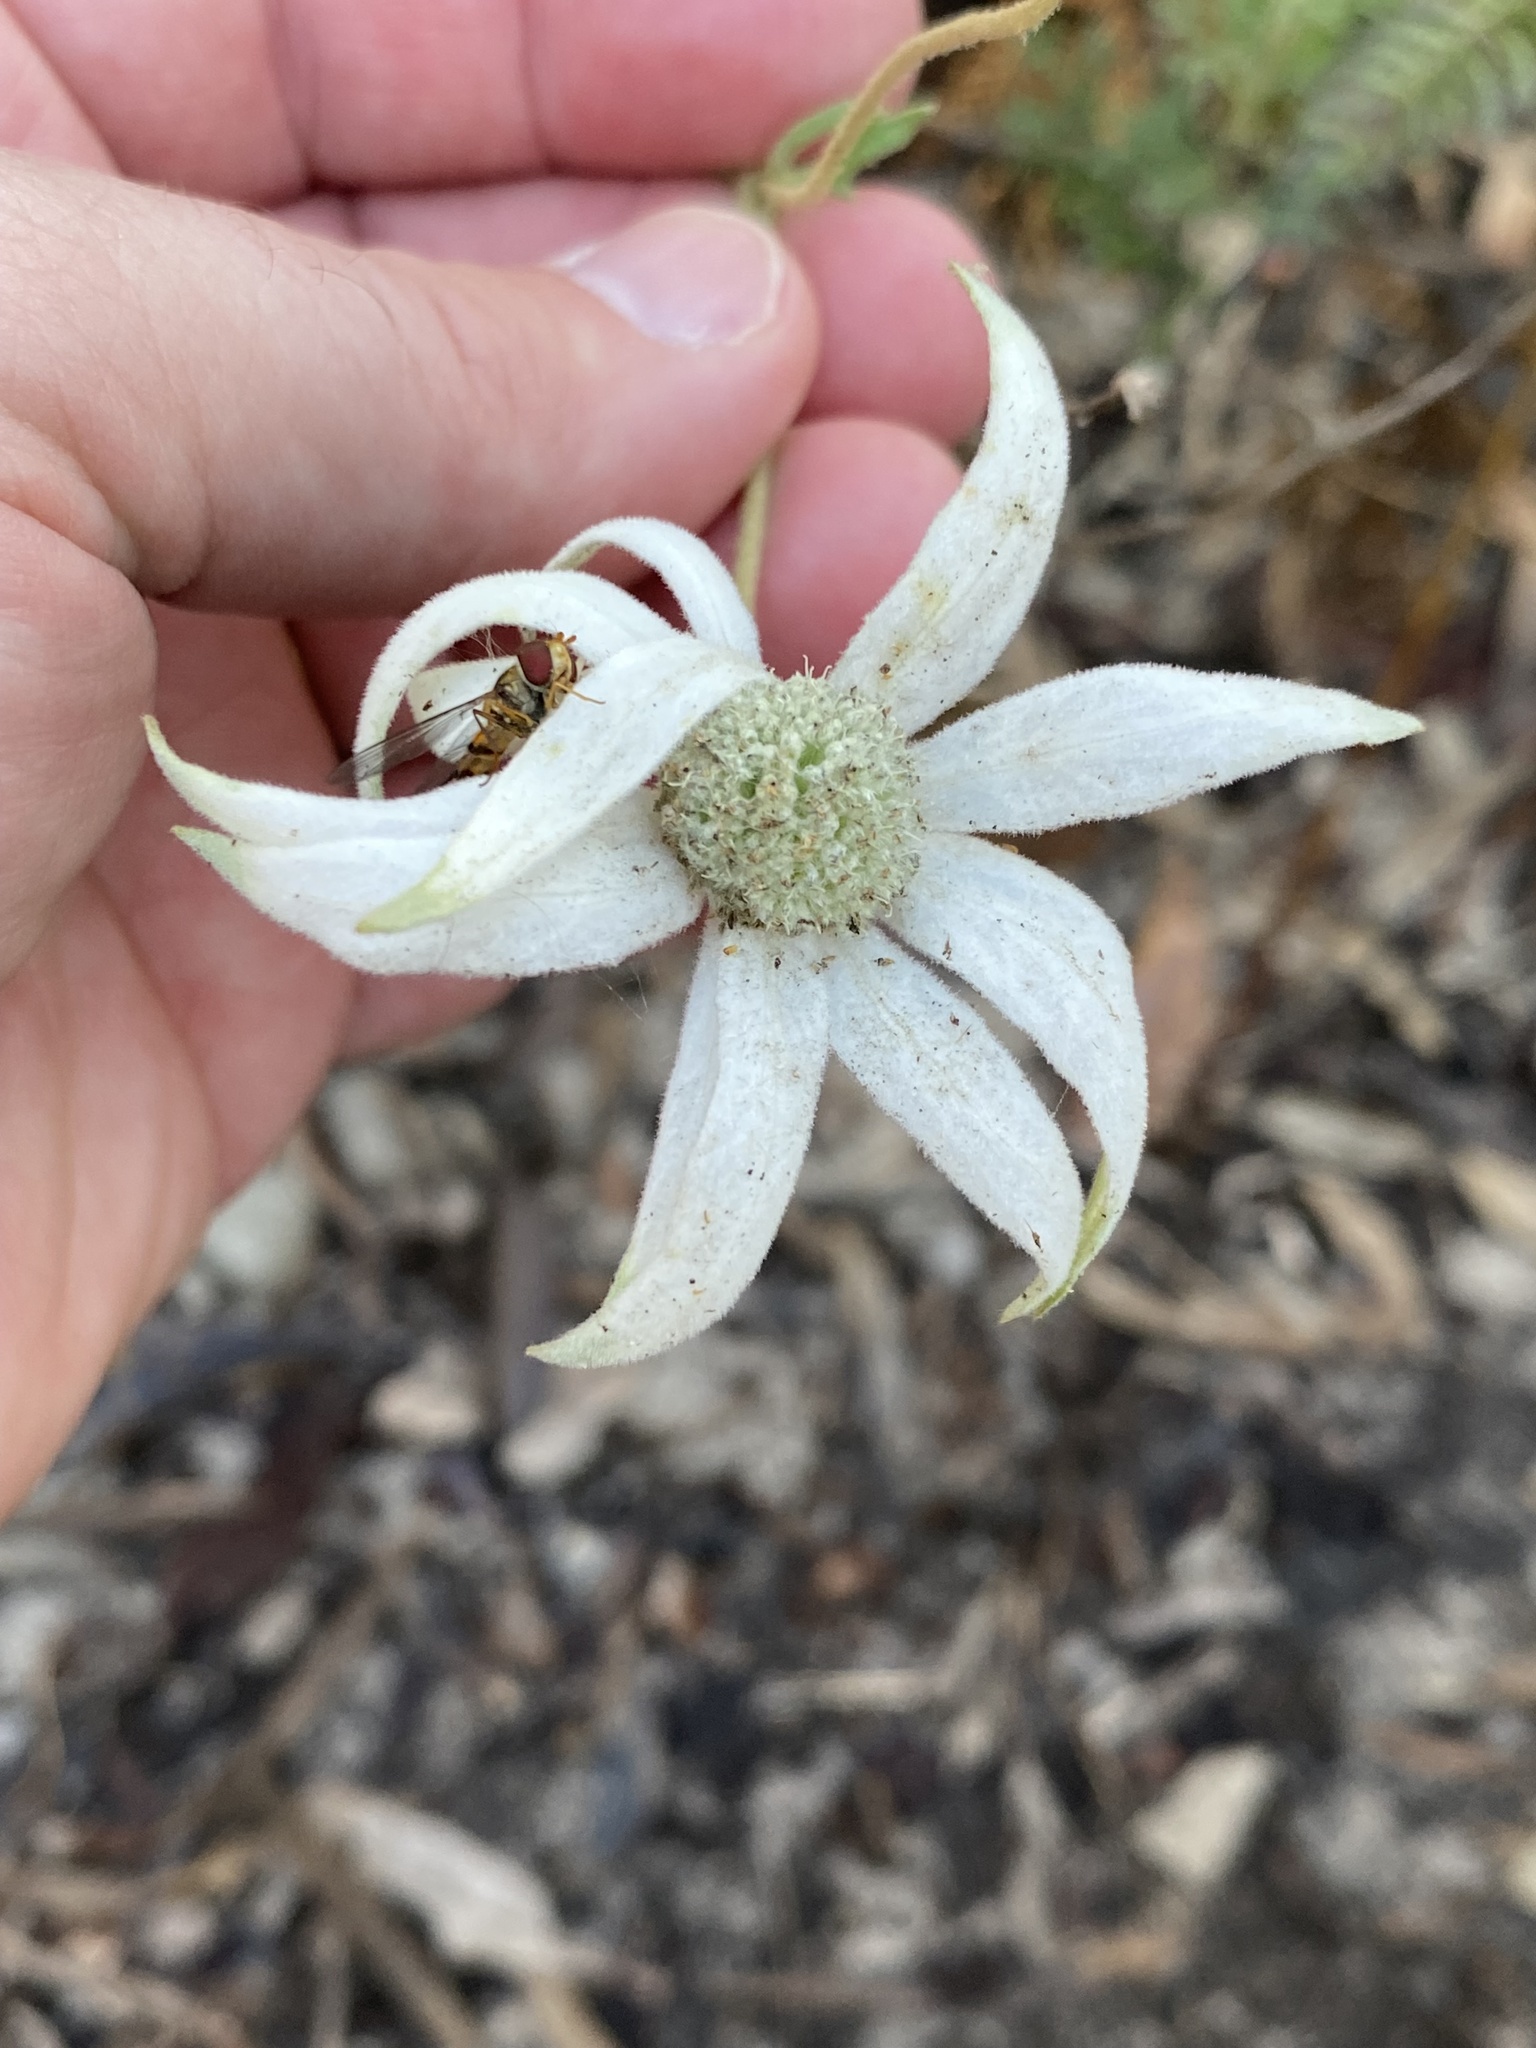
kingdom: Plantae
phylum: Tracheophyta
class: Magnoliopsida
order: Apiales
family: Apiaceae
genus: Actinotus
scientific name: Actinotus helianthi
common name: Flannel-flower
